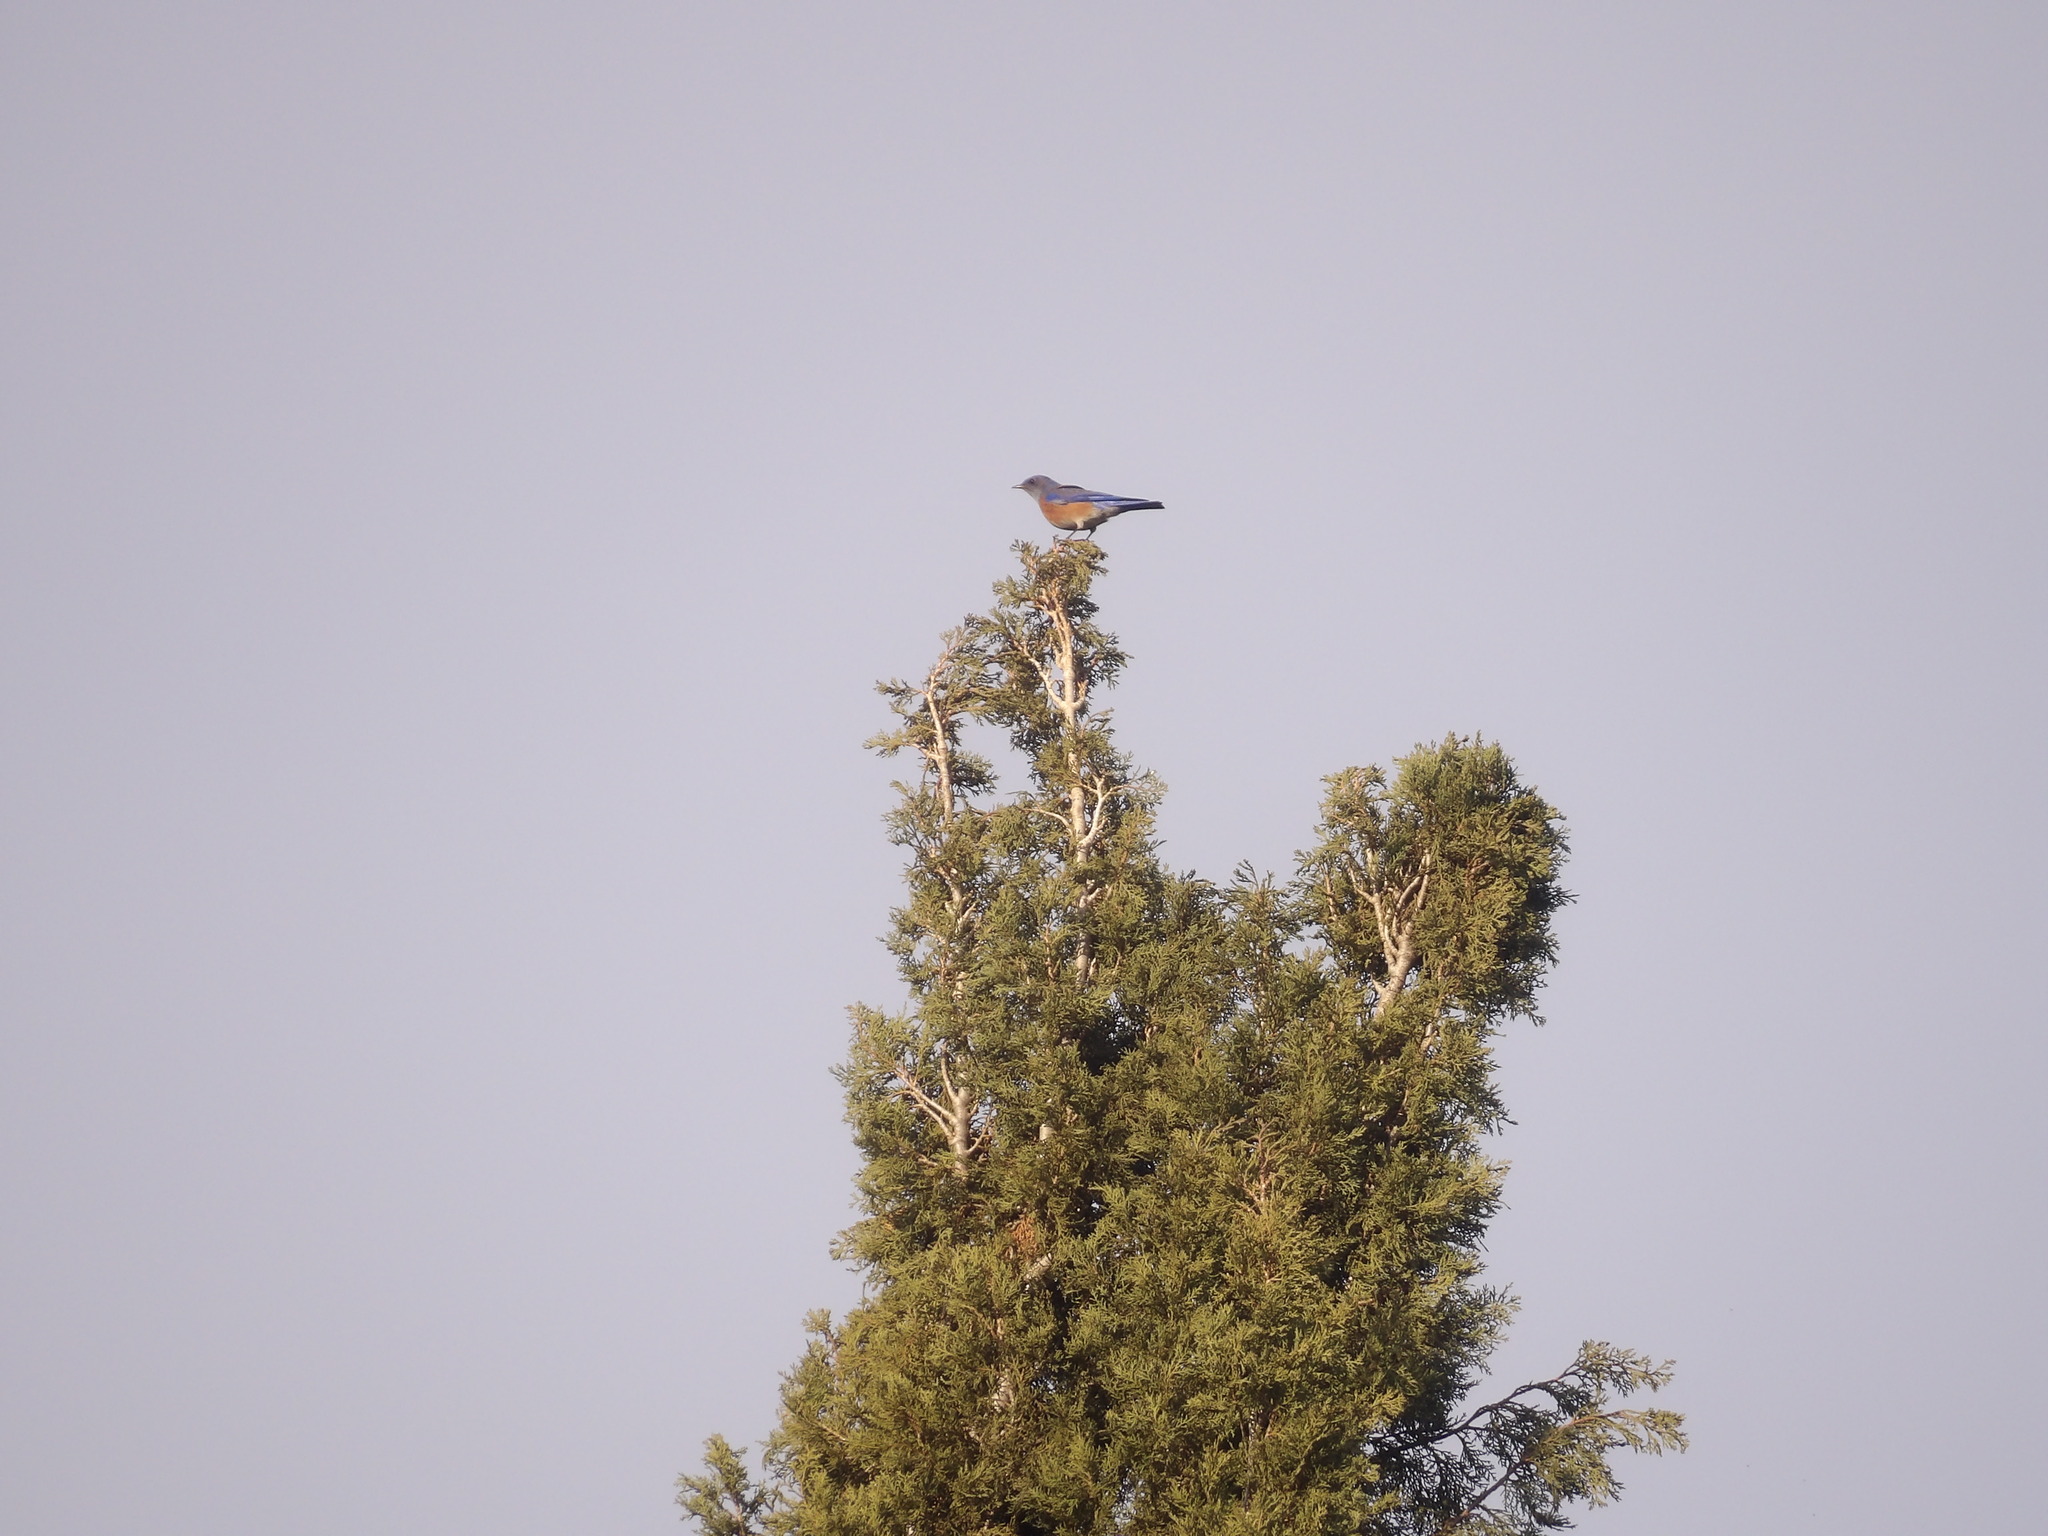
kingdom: Animalia
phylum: Chordata
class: Aves
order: Passeriformes
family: Turdidae
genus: Sialia
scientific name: Sialia mexicana
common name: Western bluebird
